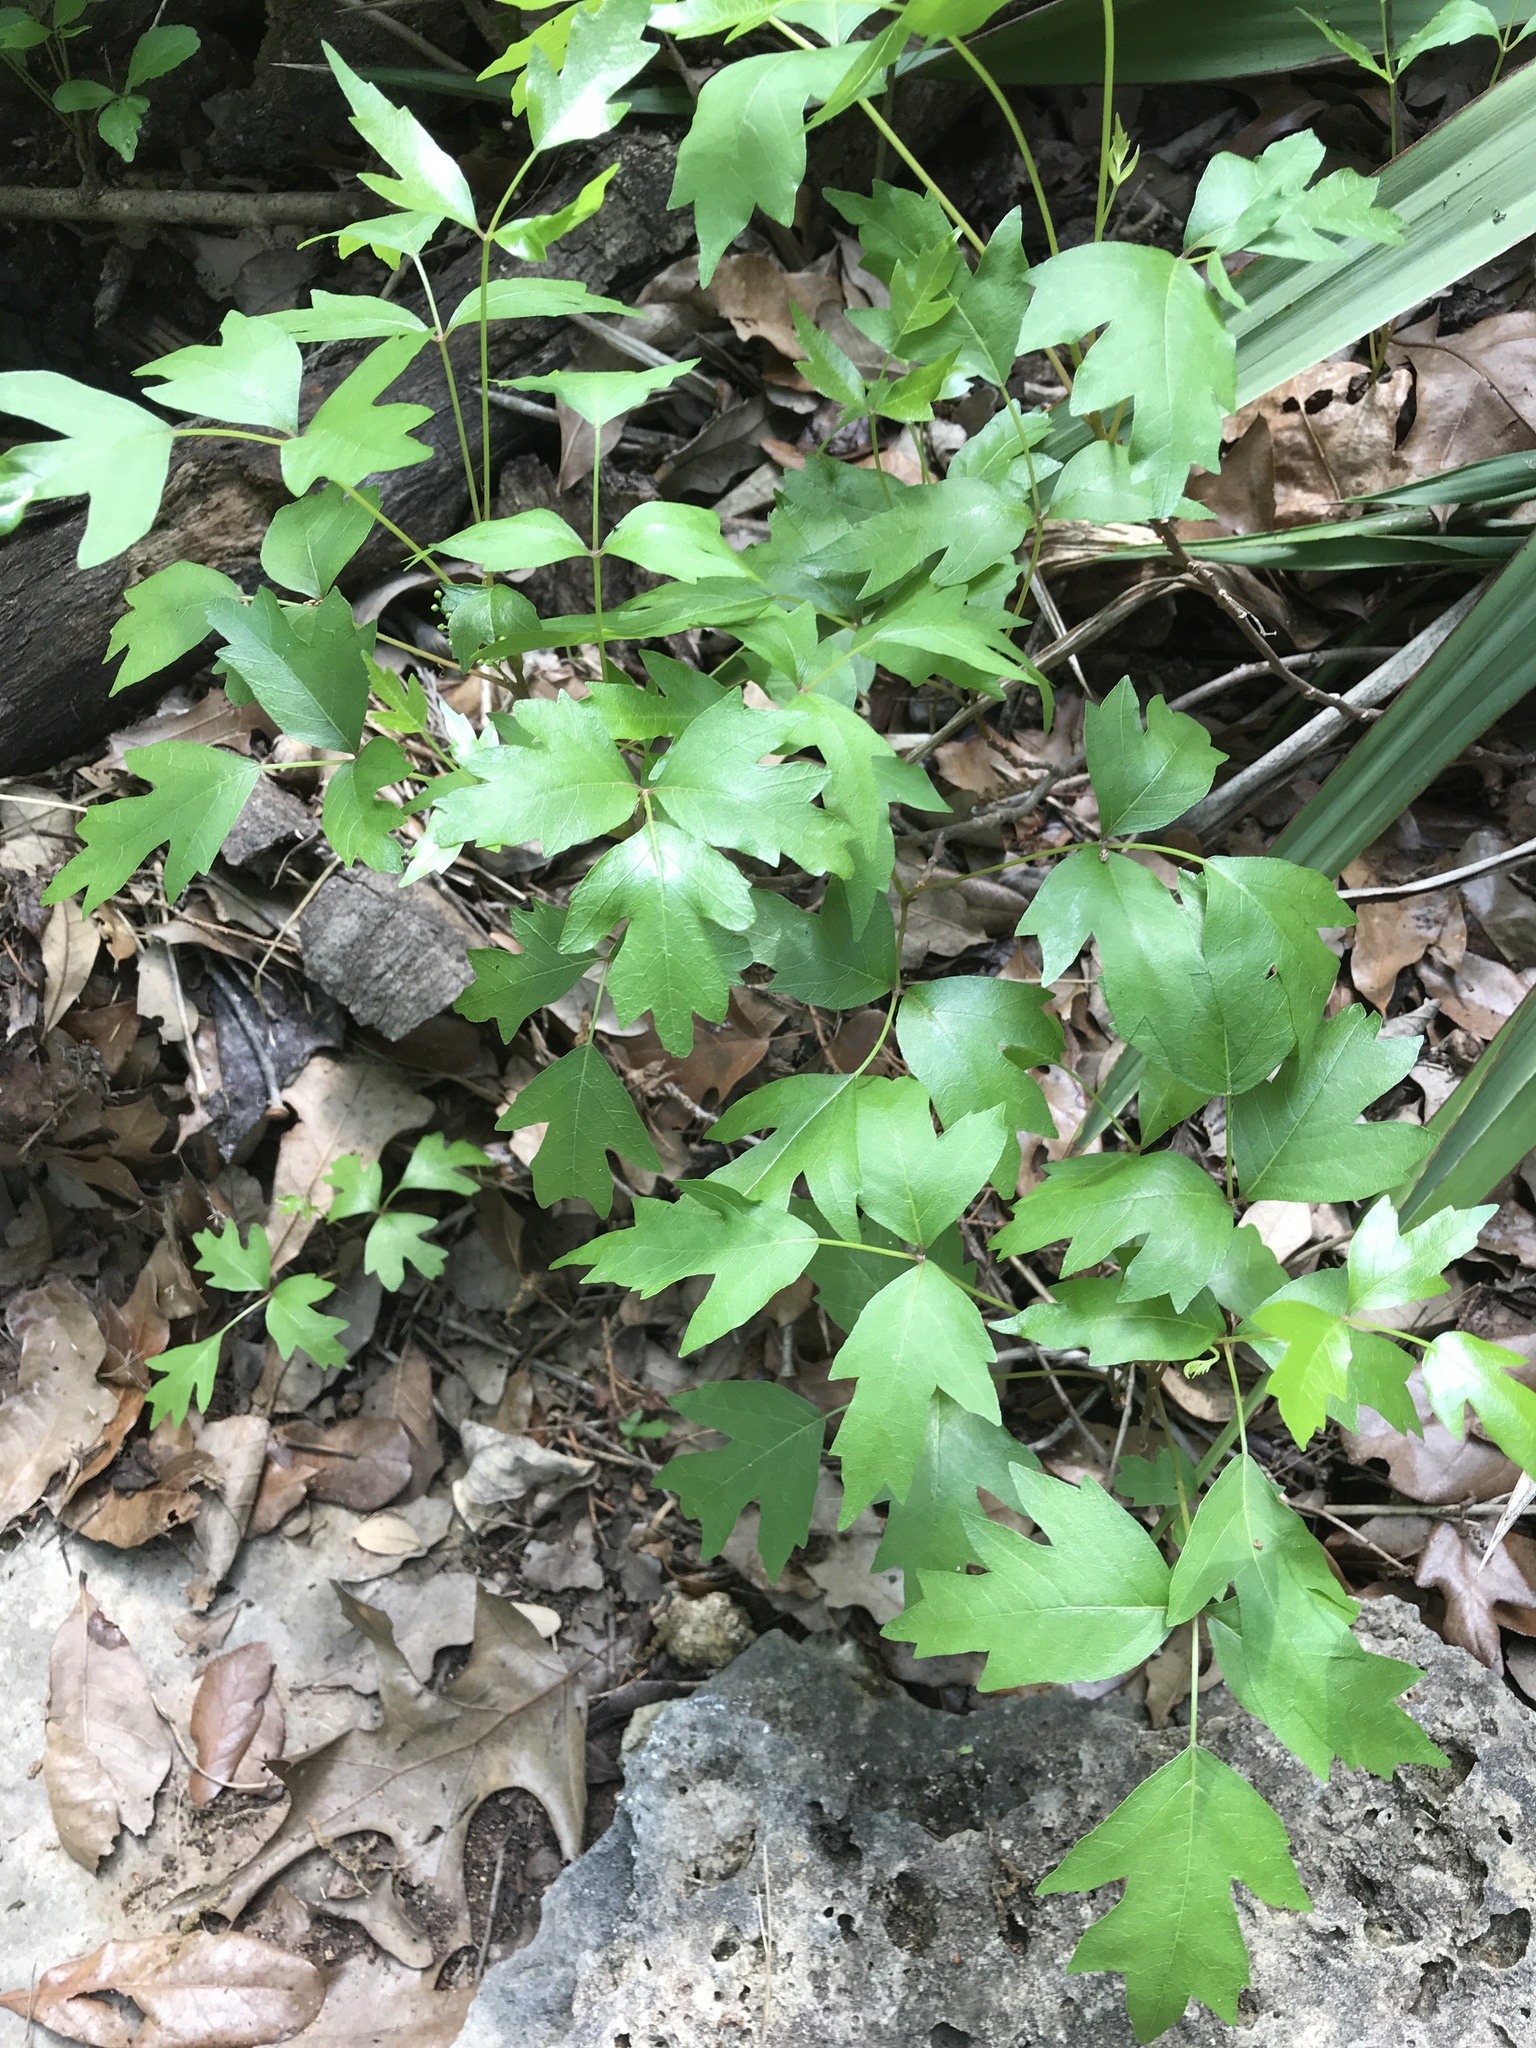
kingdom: Plantae
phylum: Tracheophyta
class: Magnoliopsida
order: Sapindales
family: Anacardiaceae
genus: Toxicodendron
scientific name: Toxicodendron radicans
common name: Poison ivy
